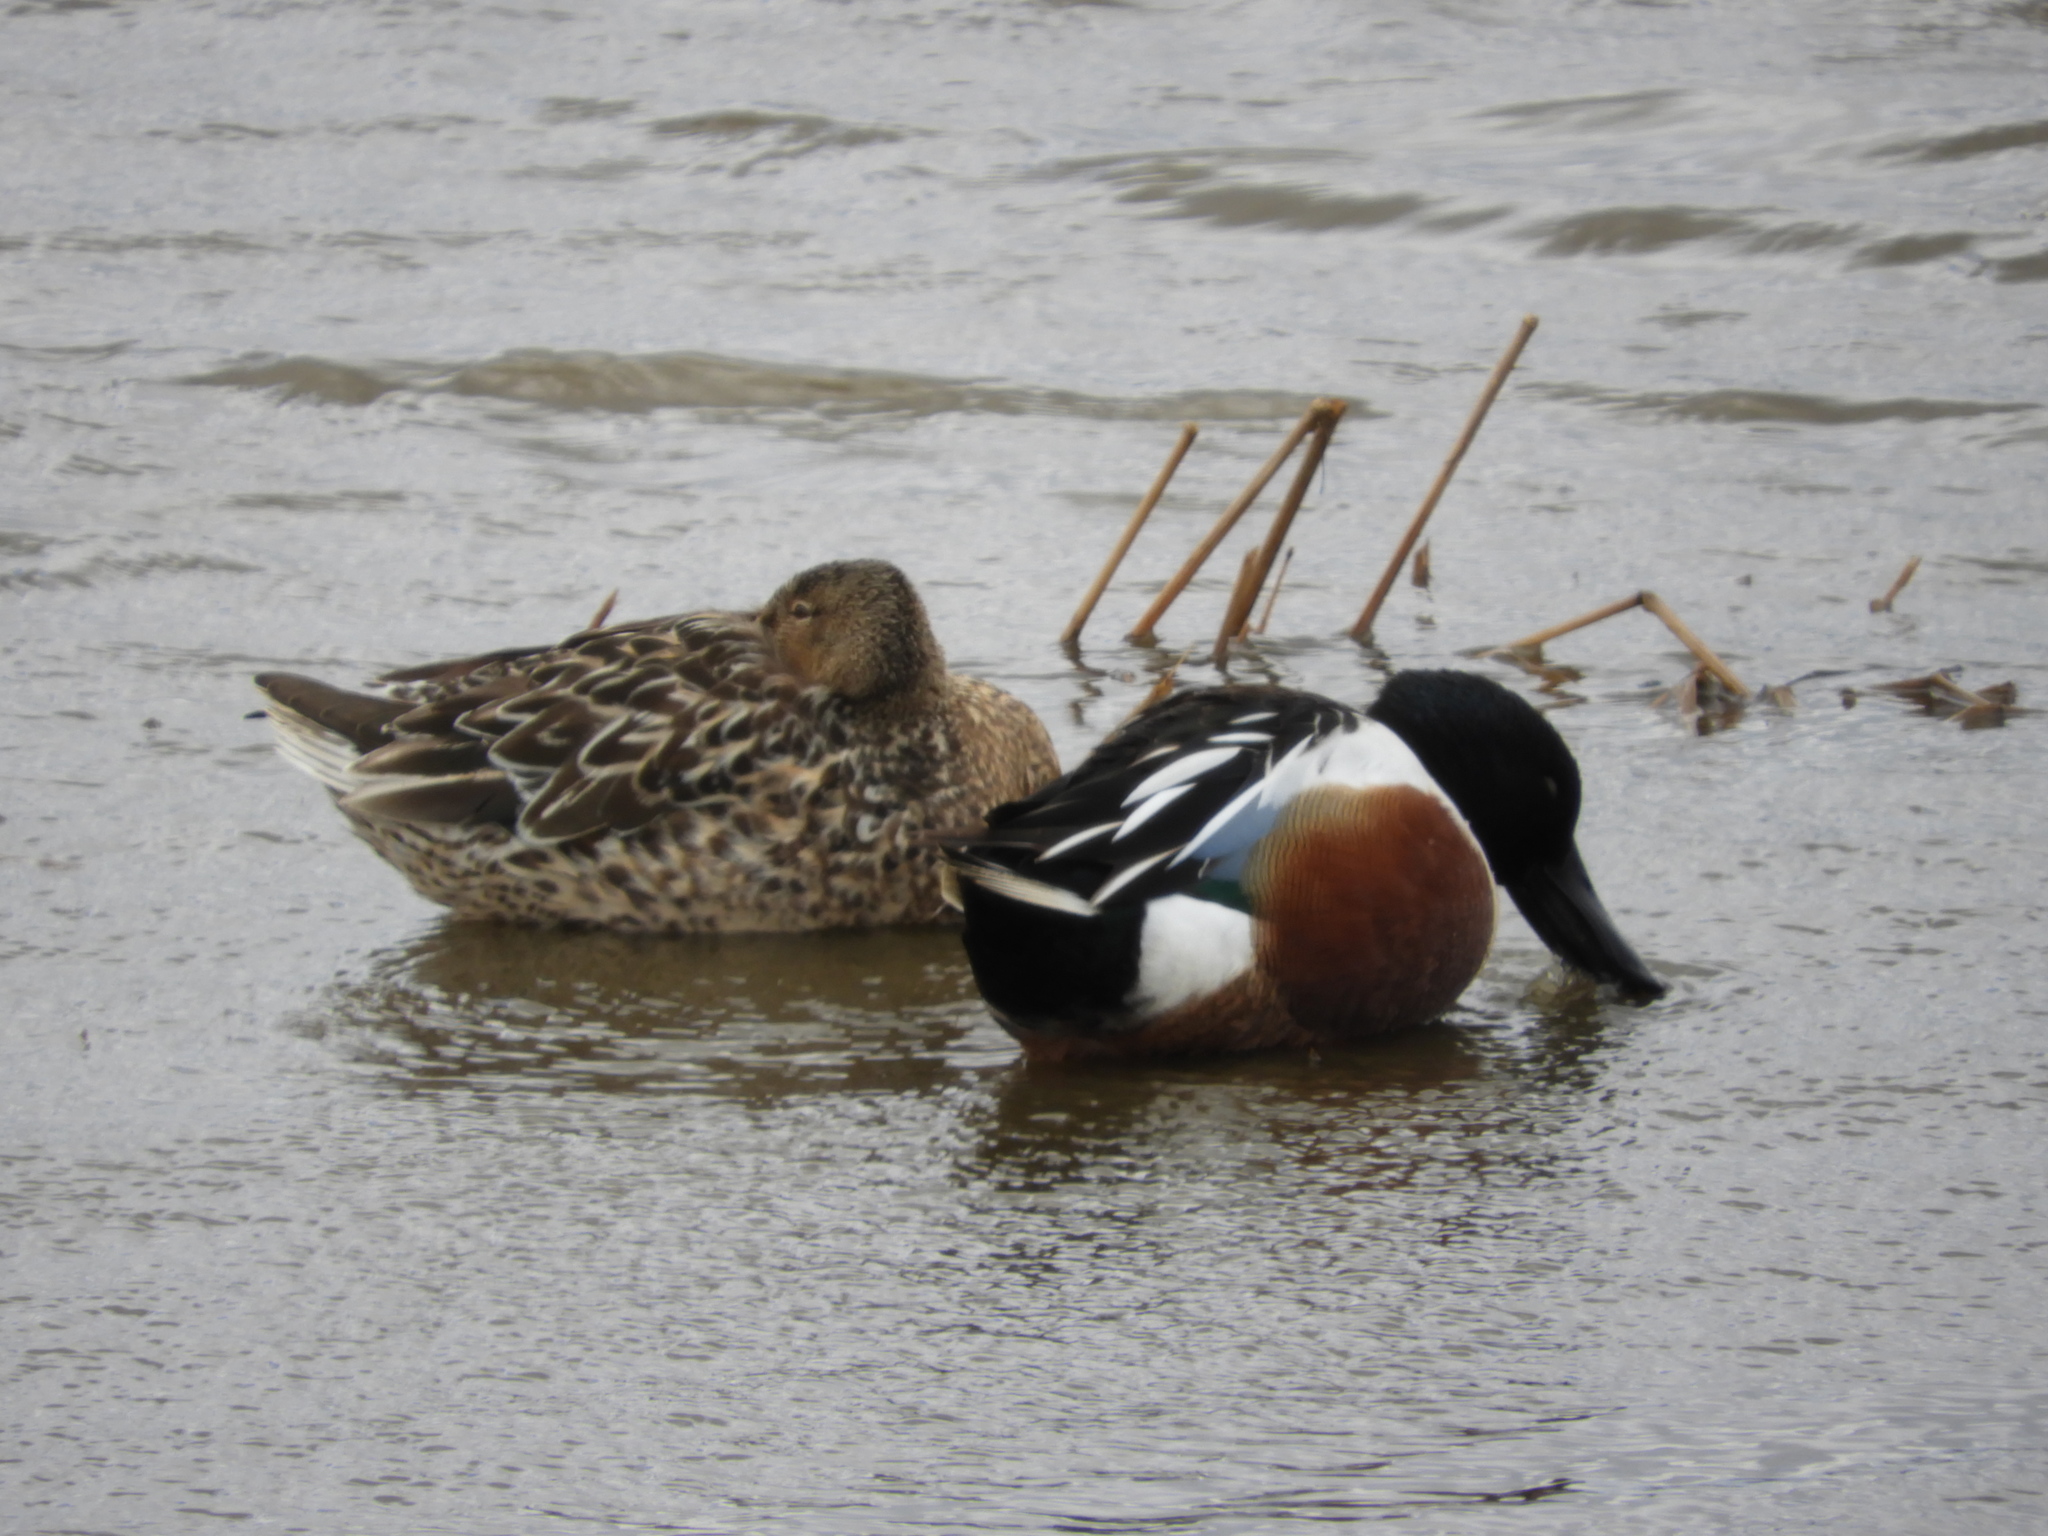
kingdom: Animalia
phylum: Chordata
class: Aves
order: Anseriformes
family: Anatidae
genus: Spatula
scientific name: Spatula clypeata
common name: Northern shoveler
